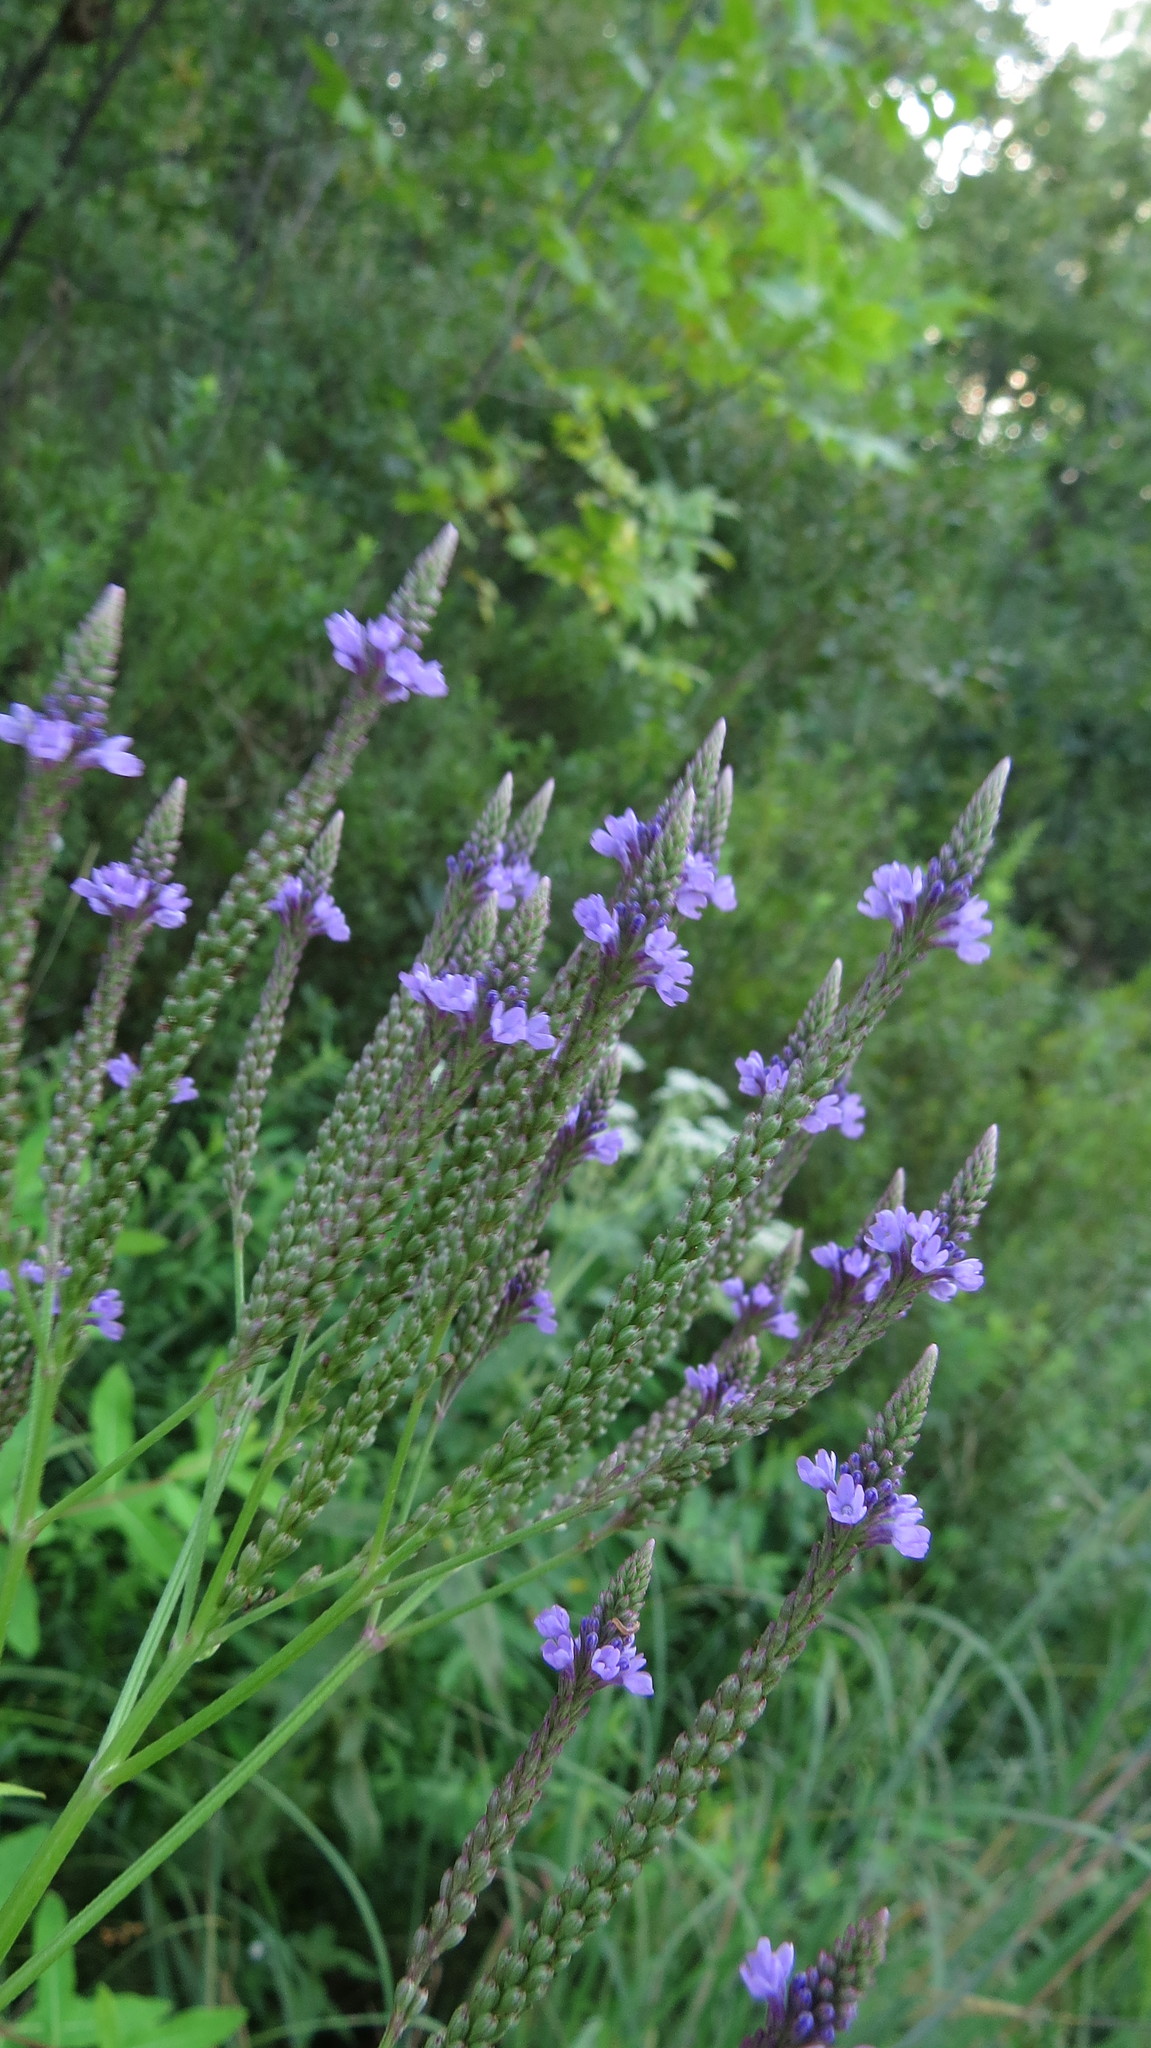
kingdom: Plantae
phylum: Tracheophyta
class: Magnoliopsida
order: Lamiales
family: Verbenaceae
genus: Verbena
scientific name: Verbena hastata
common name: American blue vervain
